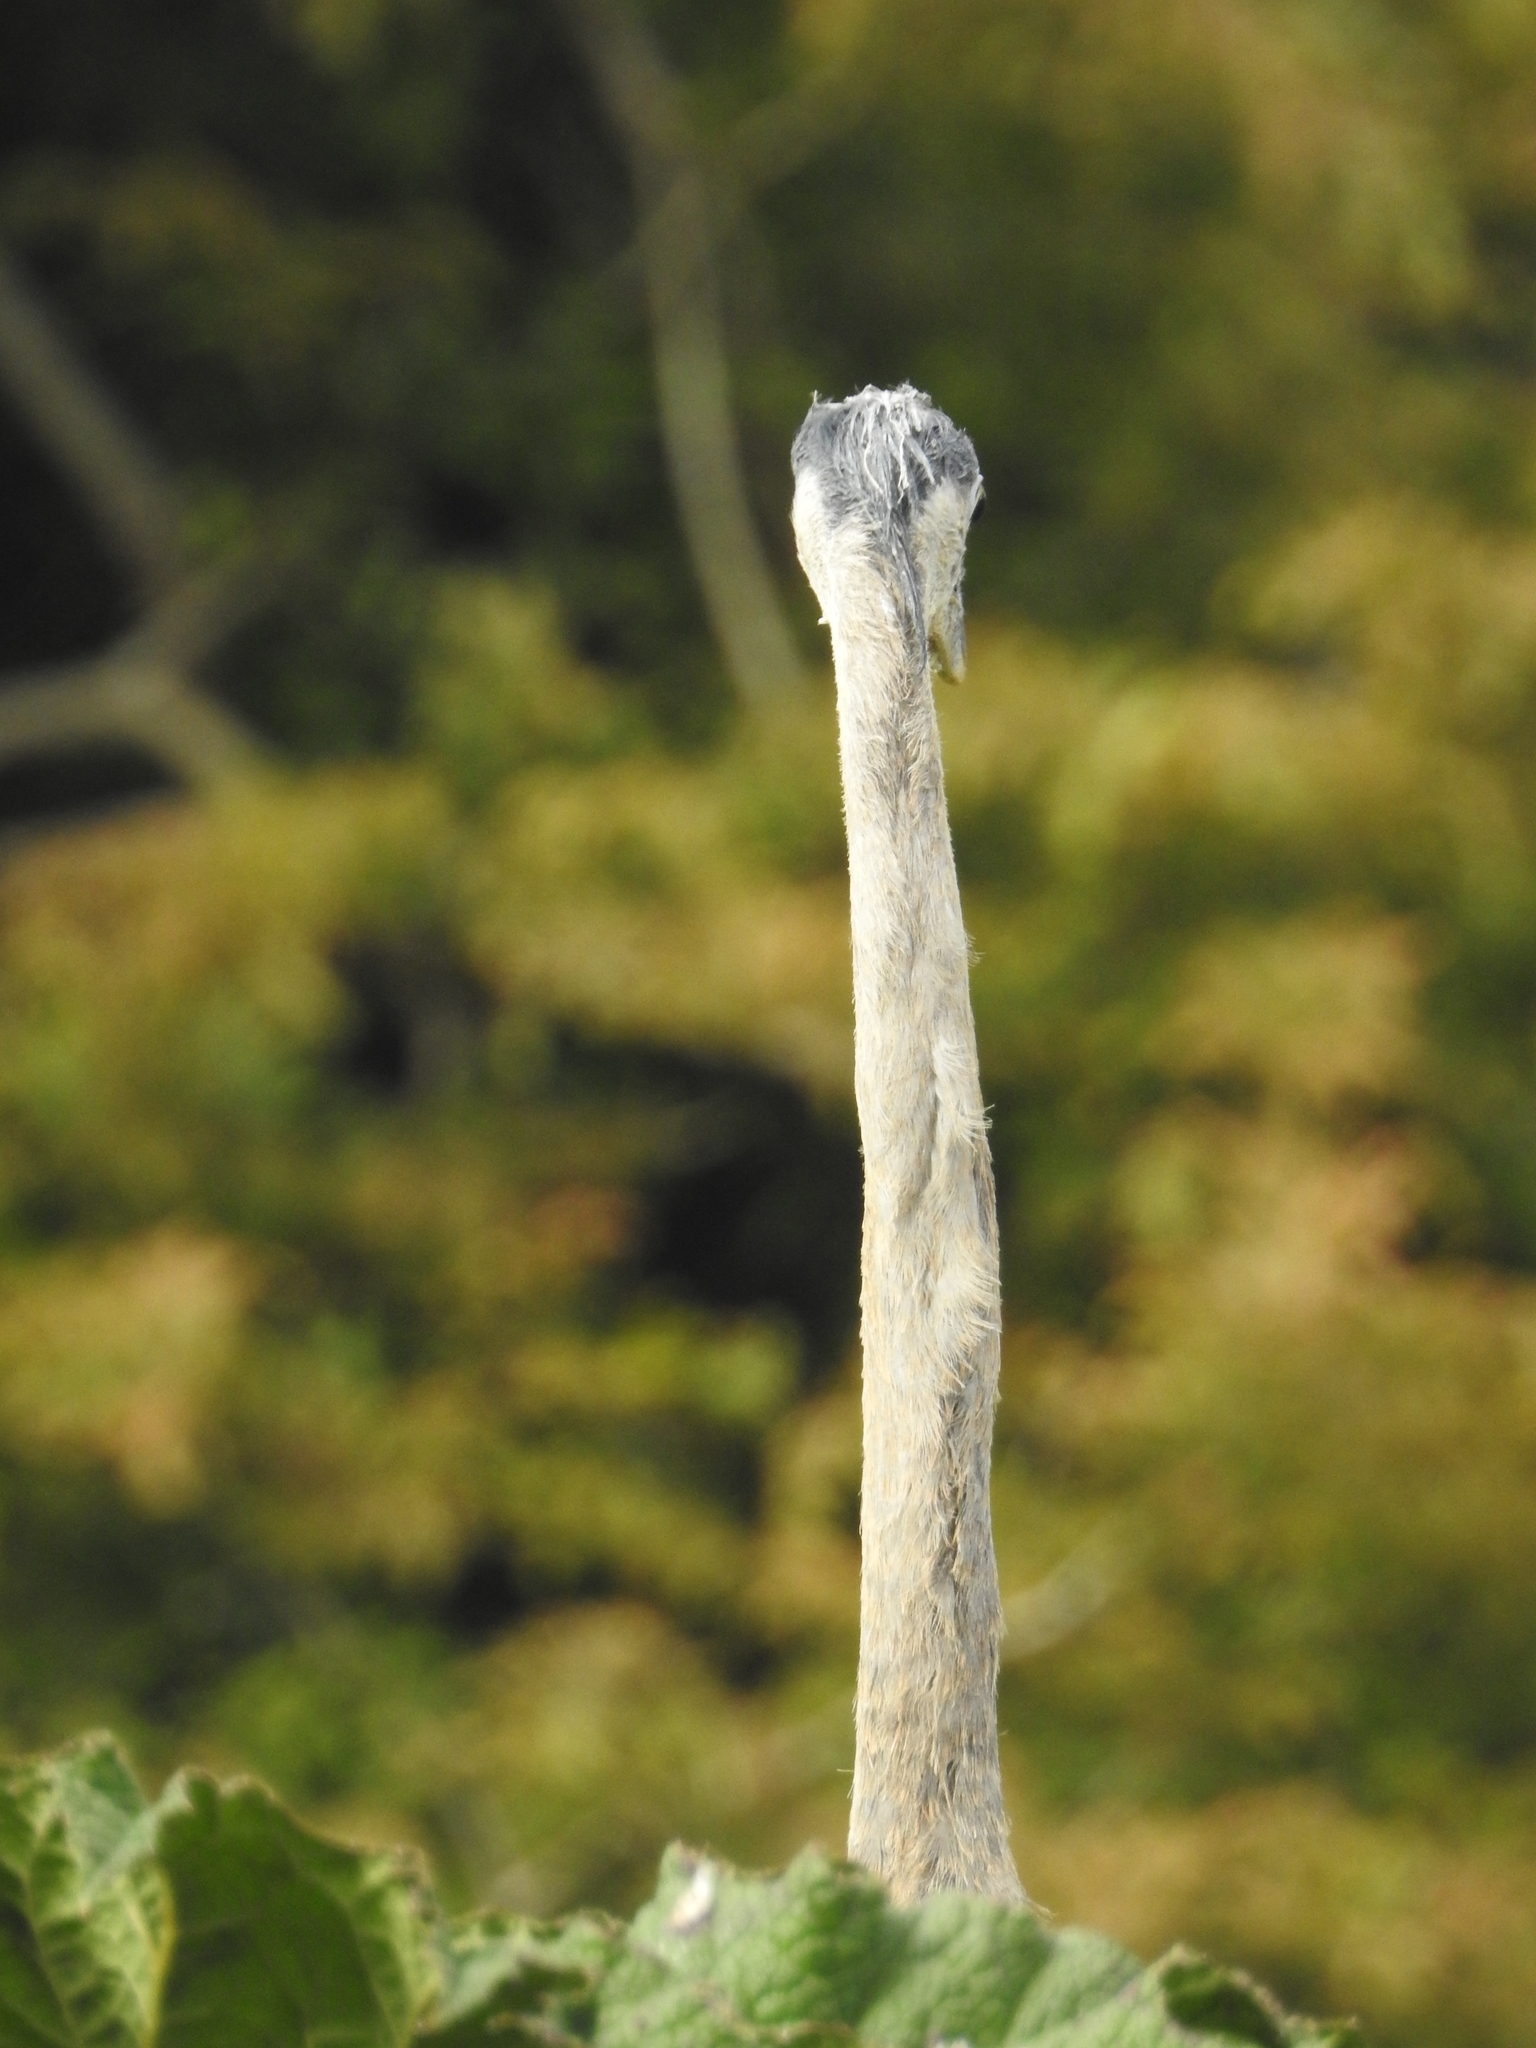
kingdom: Animalia
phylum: Chordata
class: Aves
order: Pelecaniformes
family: Ardeidae
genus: Ardea
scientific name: Ardea herodias
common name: Great blue heron
